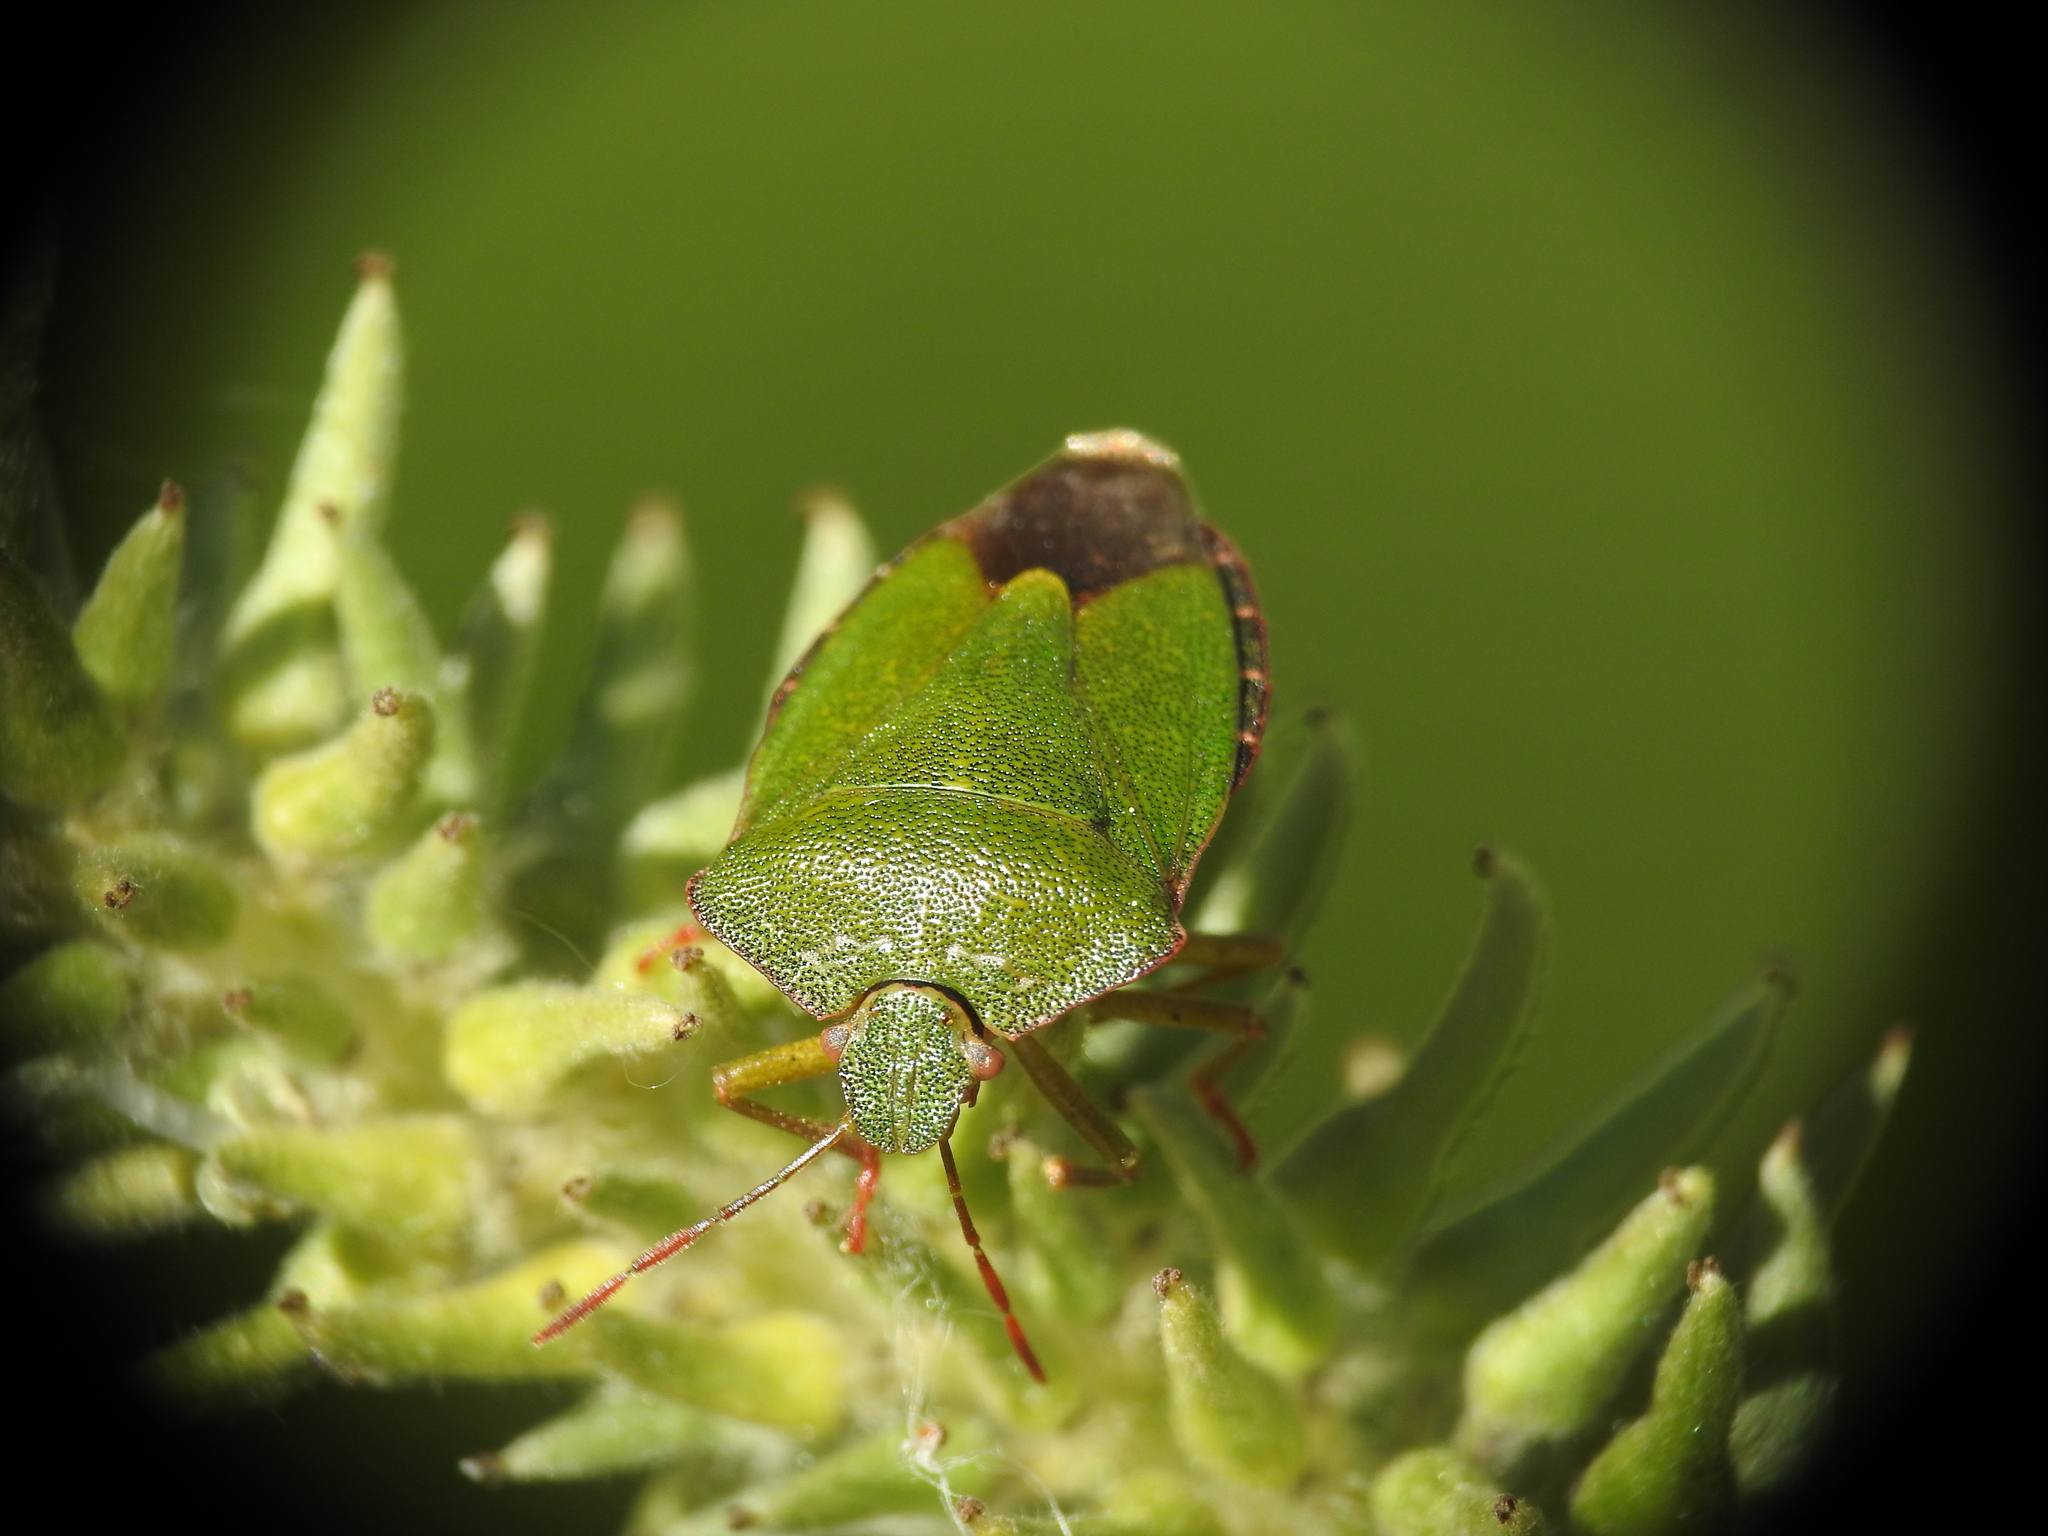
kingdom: Animalia
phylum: Arthropoda
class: Insecta
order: Hemiptera
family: Pentatomidae
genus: Palomena
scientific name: Palomena prasina
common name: Green shieldbug
